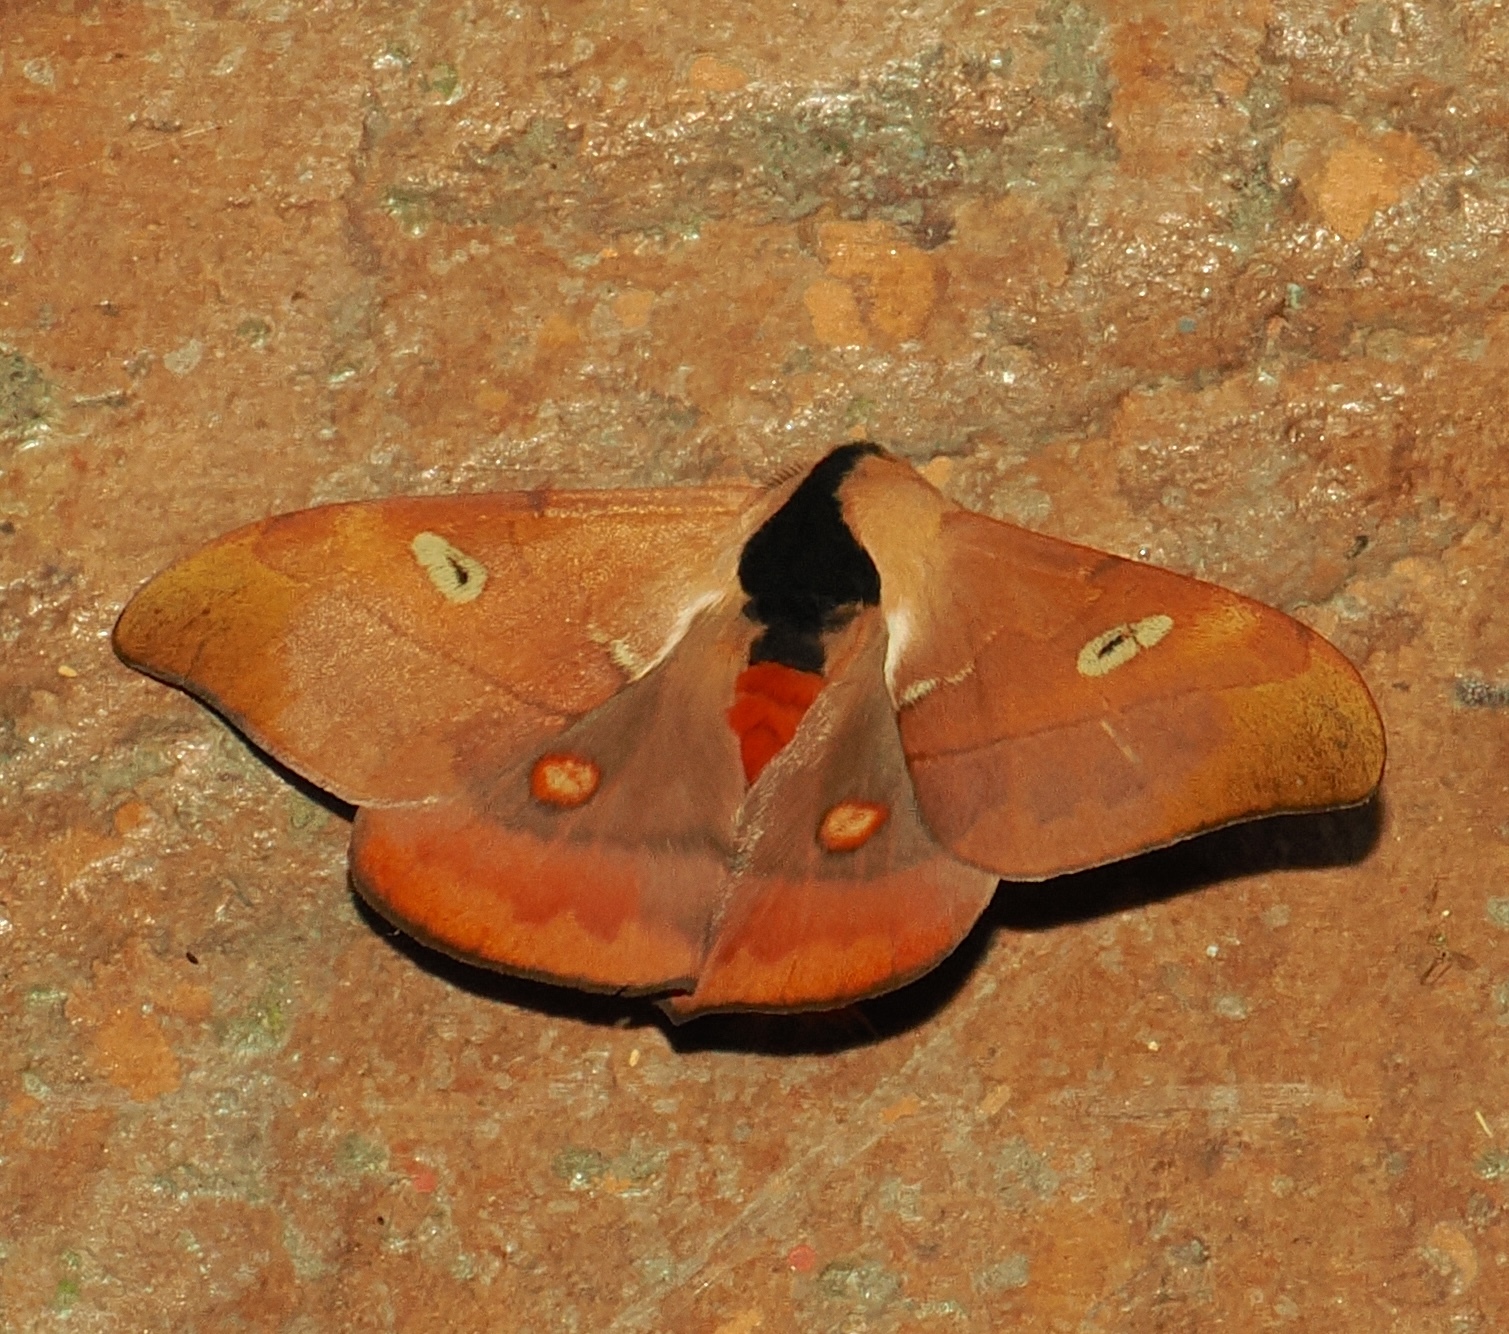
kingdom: Animalia
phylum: Arthropoda
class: Insecta
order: Lepidoptera
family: Saturniidae
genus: Hylesia
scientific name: Hylesia metapyrrha
